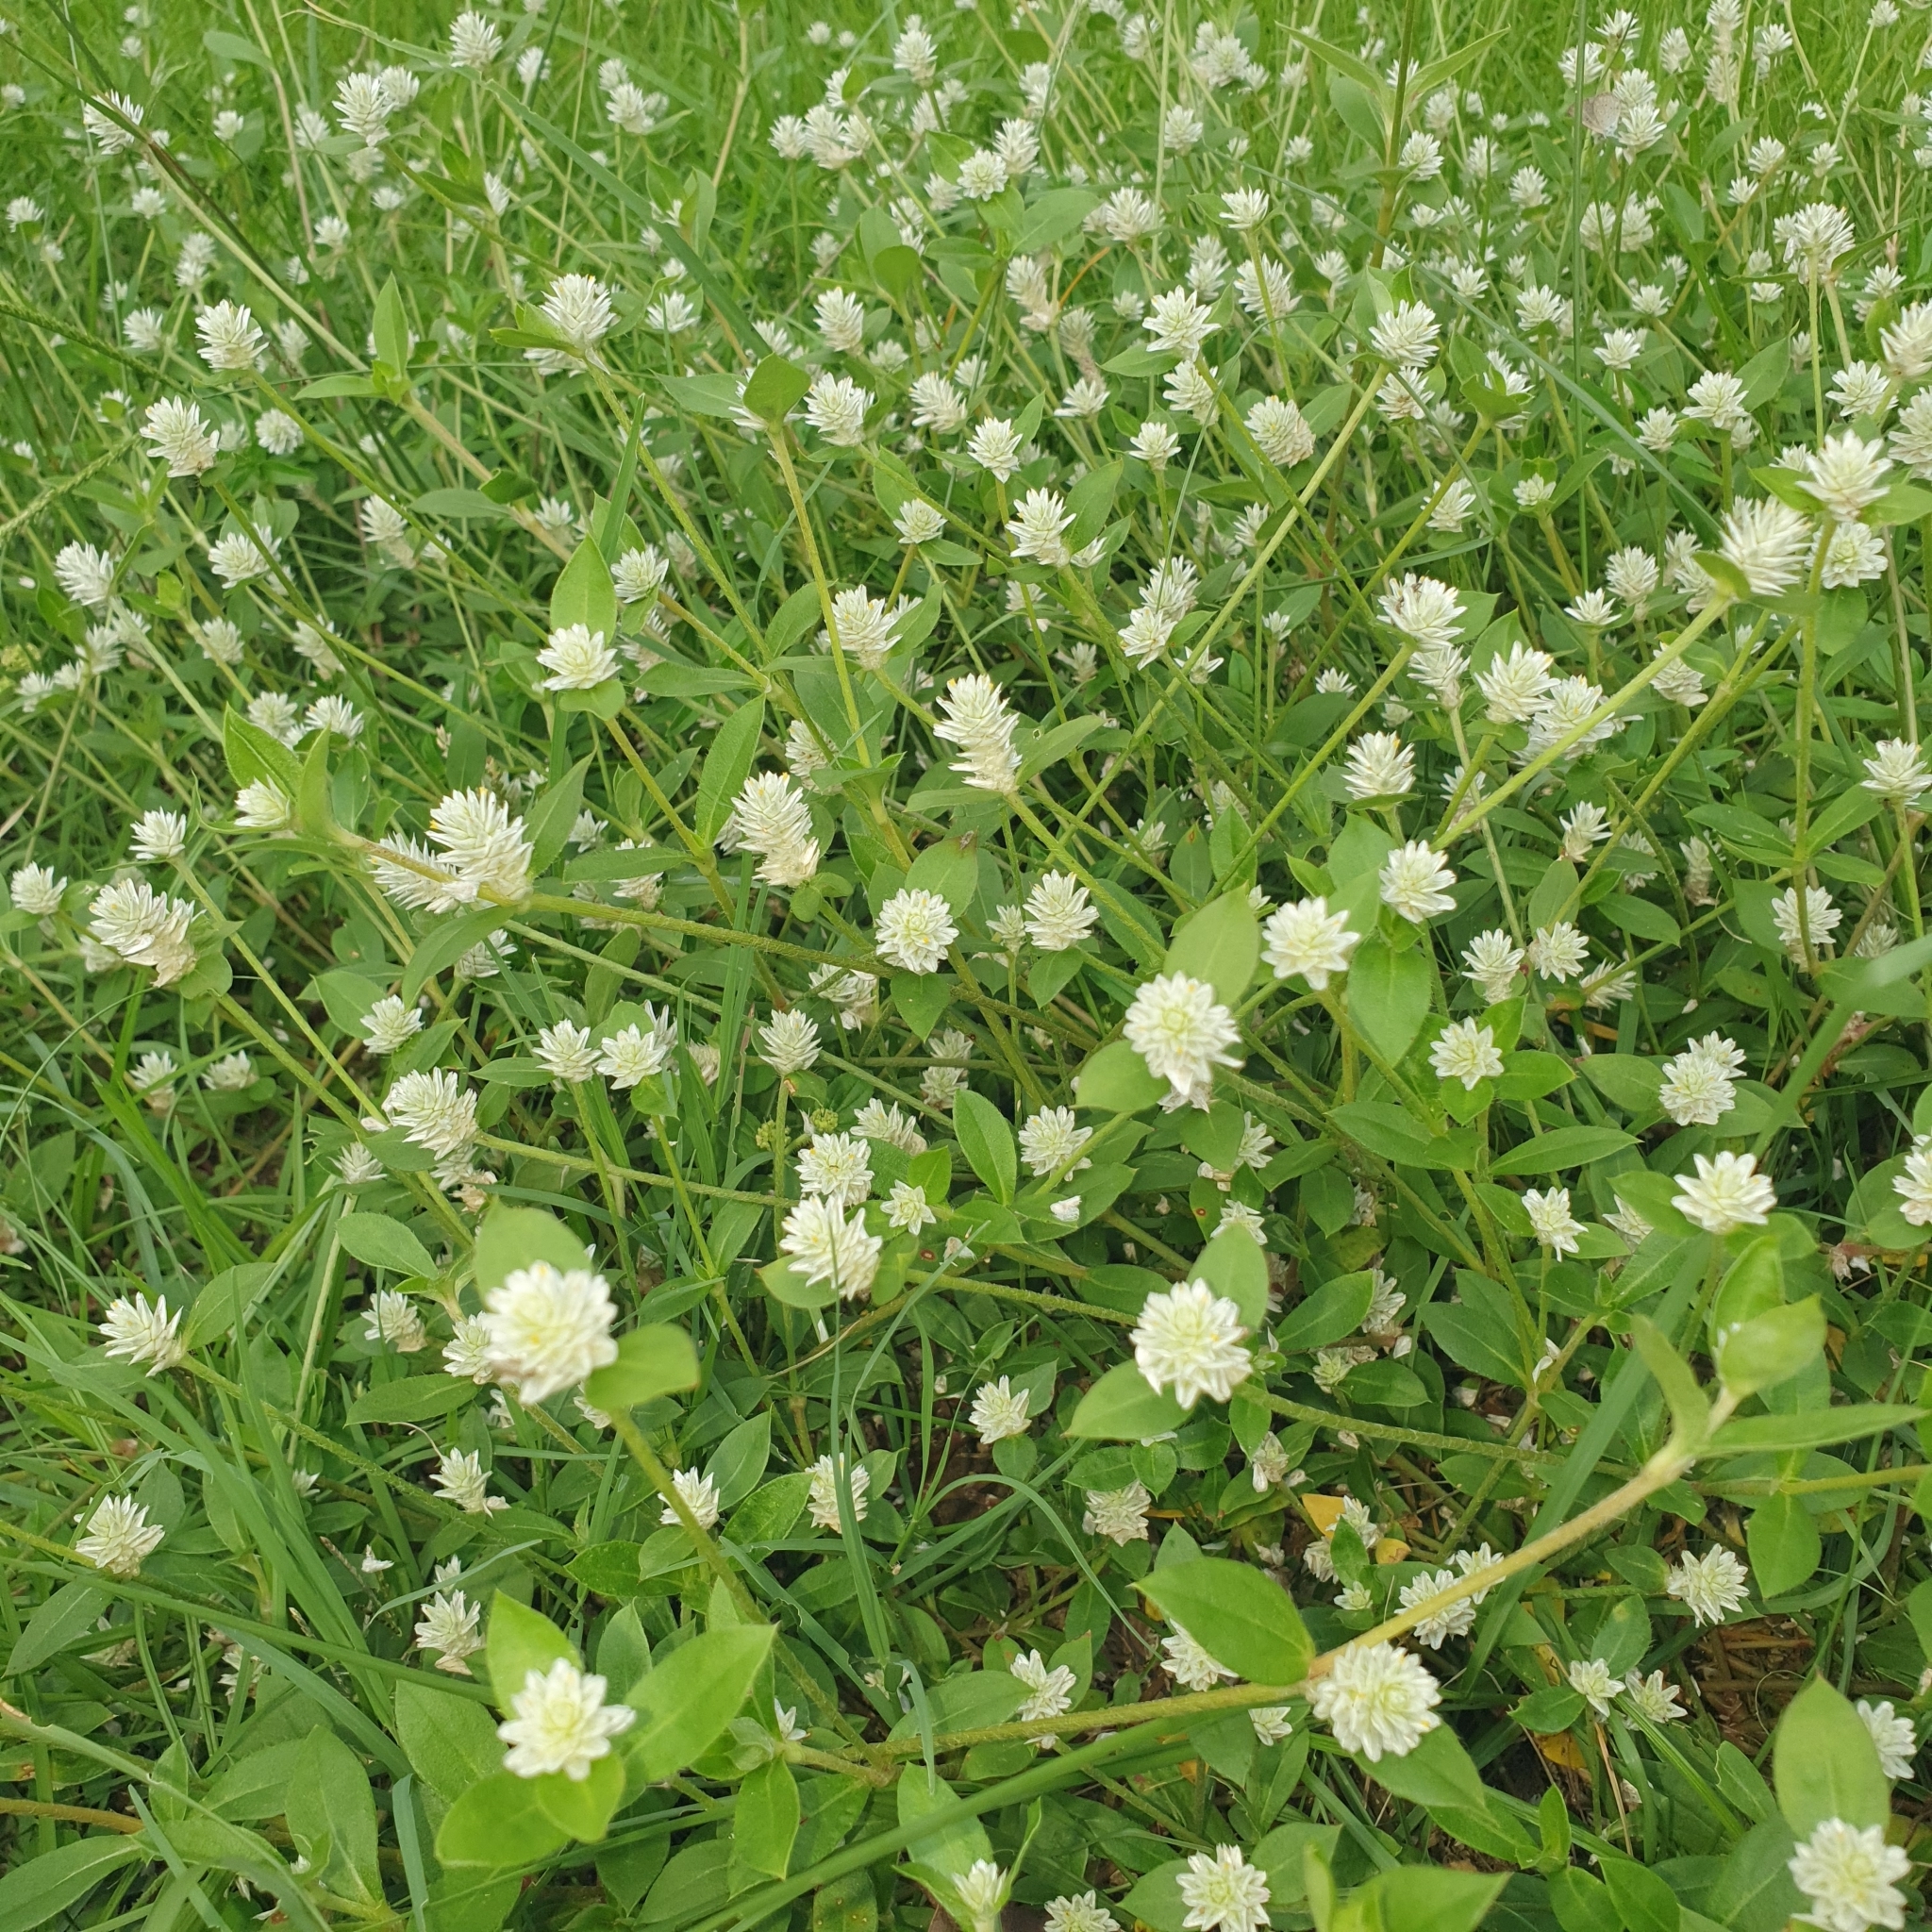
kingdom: Plantae
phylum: Tracheophyta
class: Magnoliopsida
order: Caryophyllales
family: Amaranthaceae
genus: Gomphrena
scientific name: Gomphrena celosioides
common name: Gomphrena-weed
